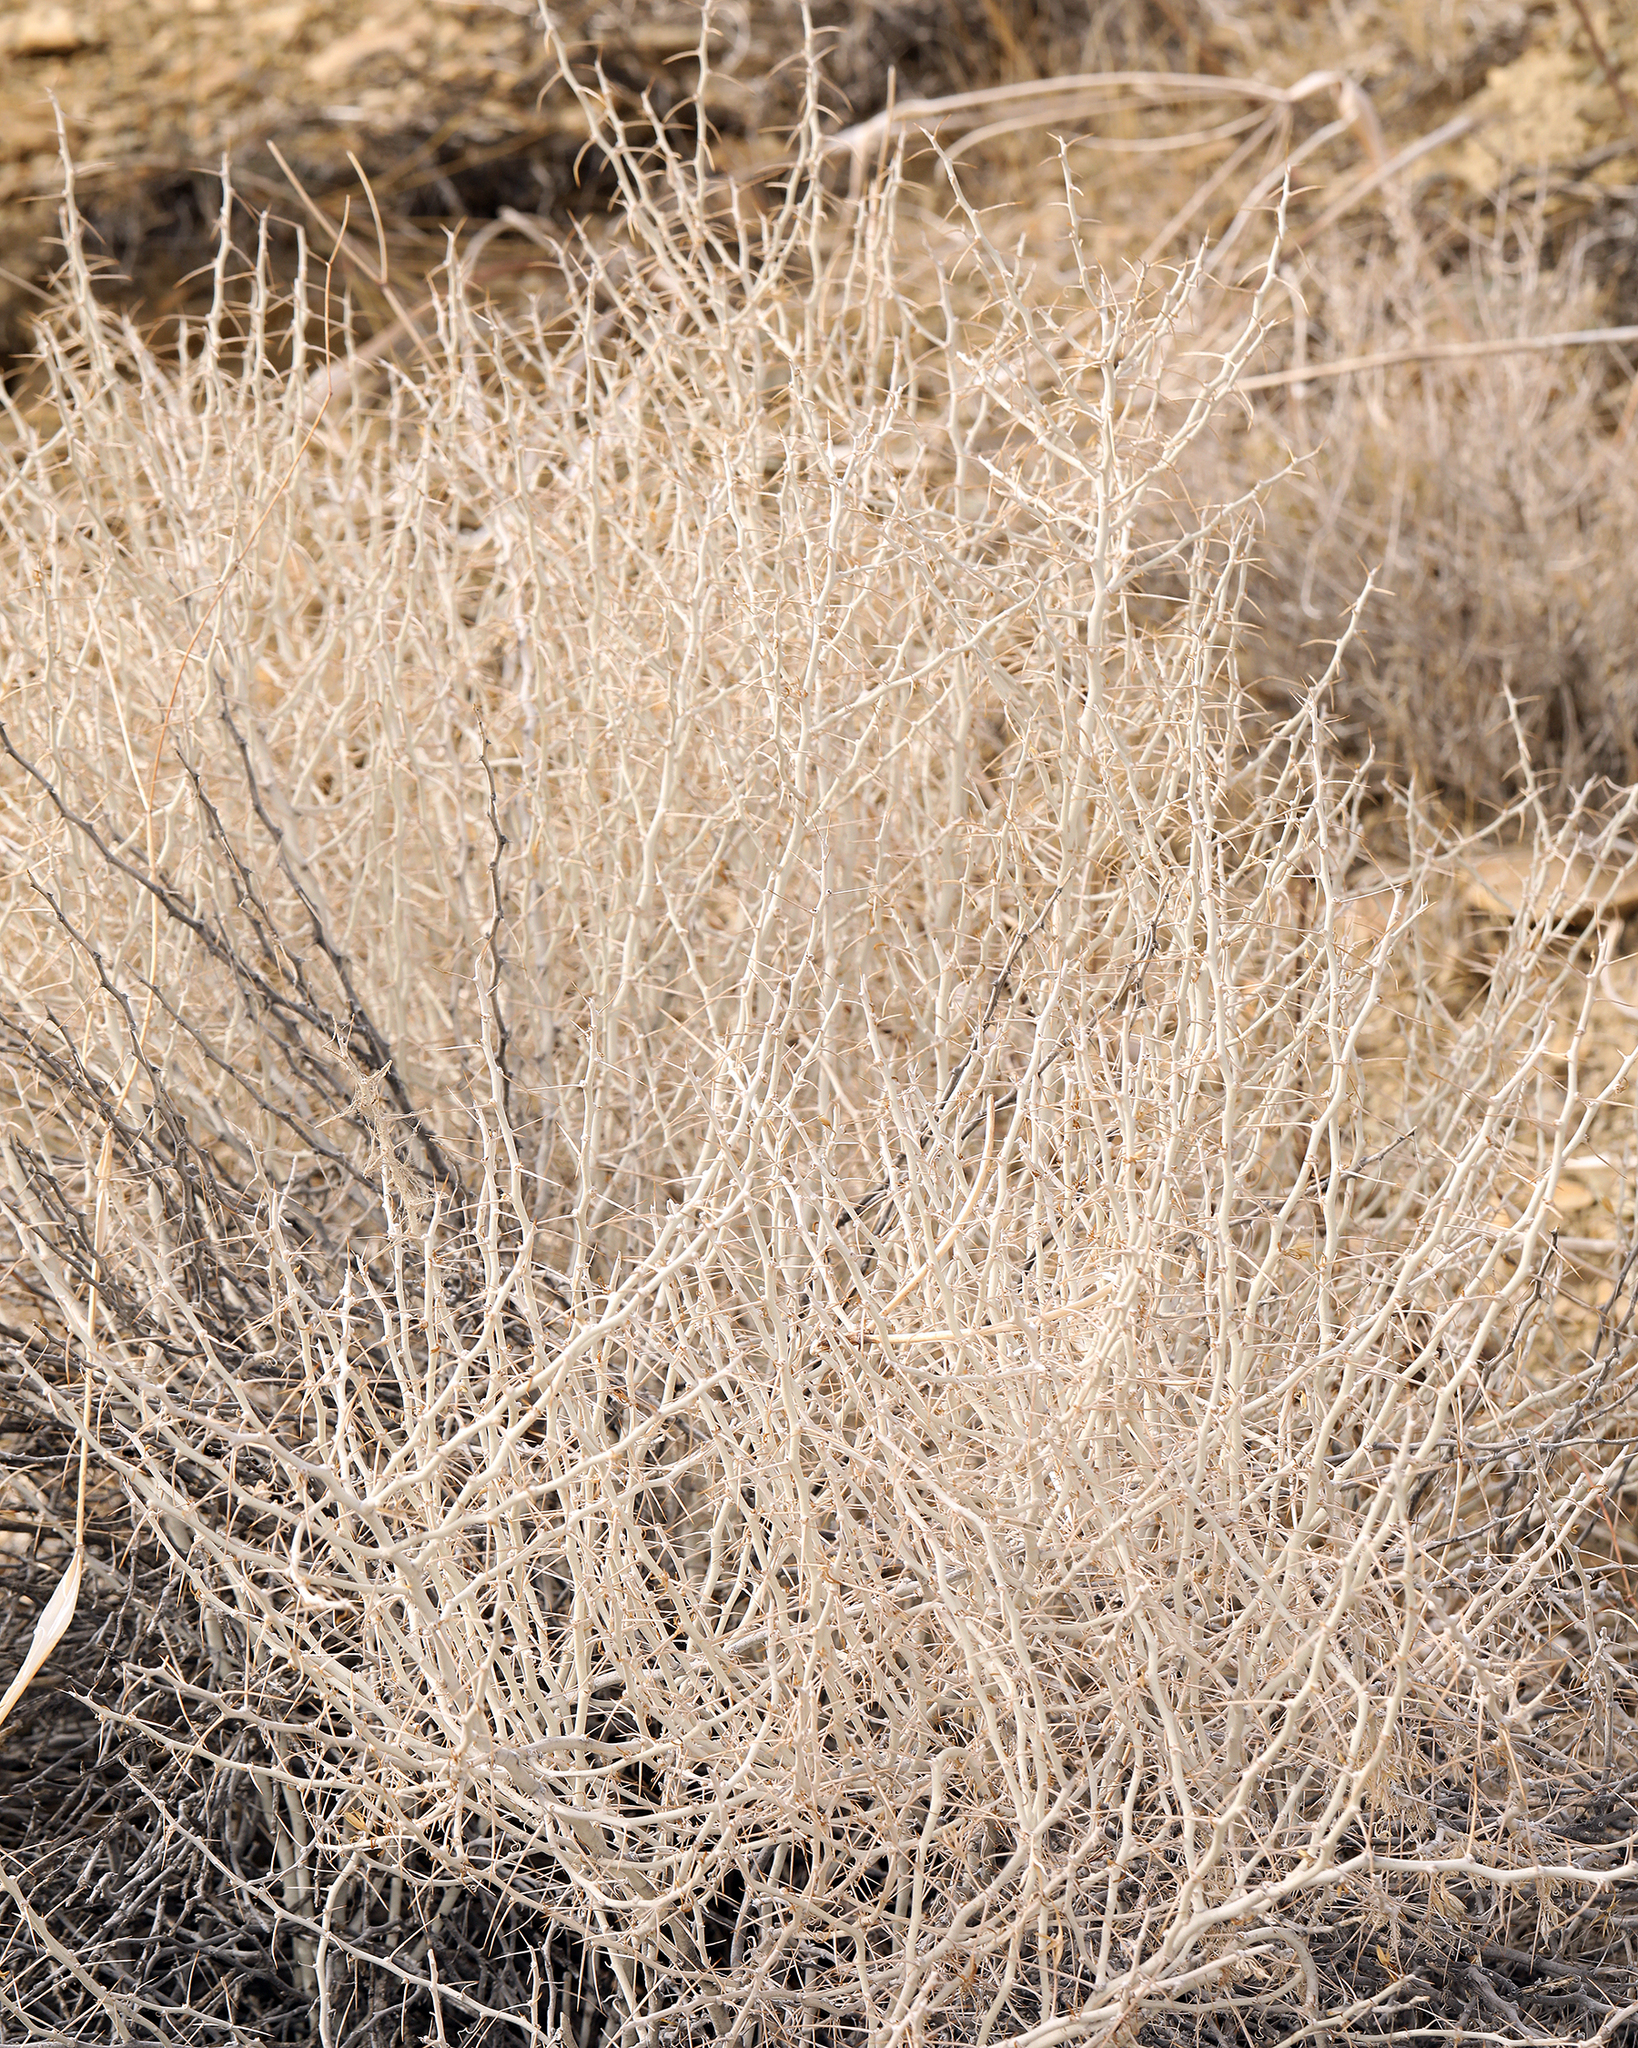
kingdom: Plantae
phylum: Tracheophyta
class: Magnoliopsida
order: Asterales
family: Asteraceae
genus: Tetradymia
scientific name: Tetradymia axillaris
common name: Long-spine horsebrush
